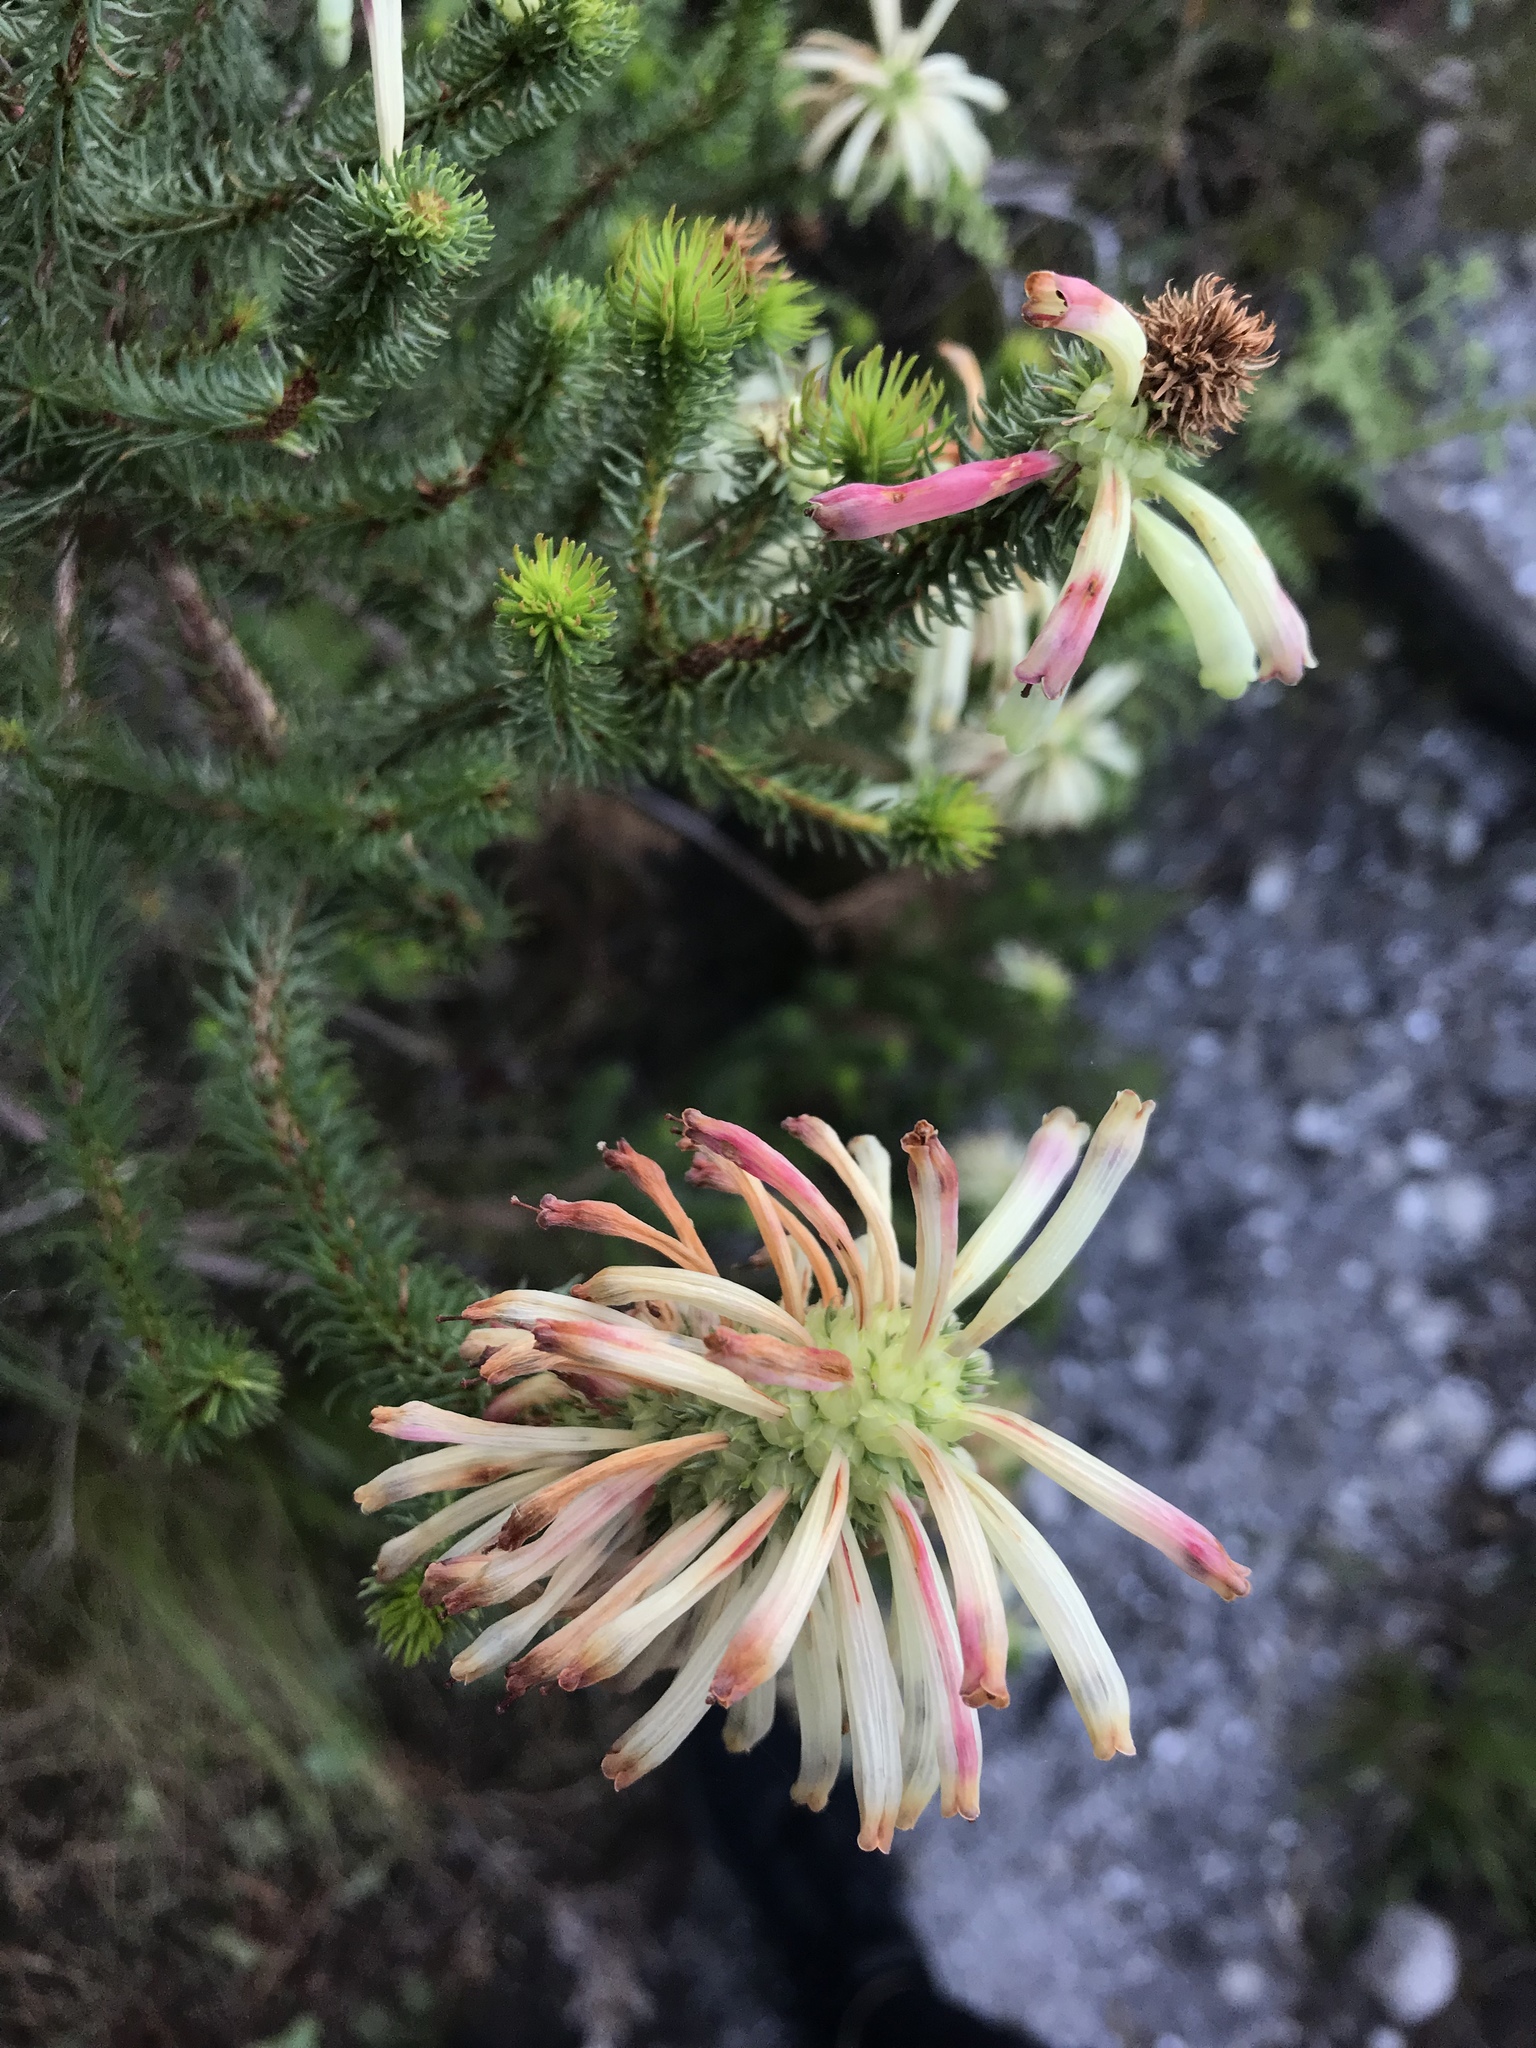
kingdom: Plantae
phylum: Tracheophyta
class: Magnoliopsida
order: Ericales
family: Ericaceae
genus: Erica
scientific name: Erica sessiliflora
